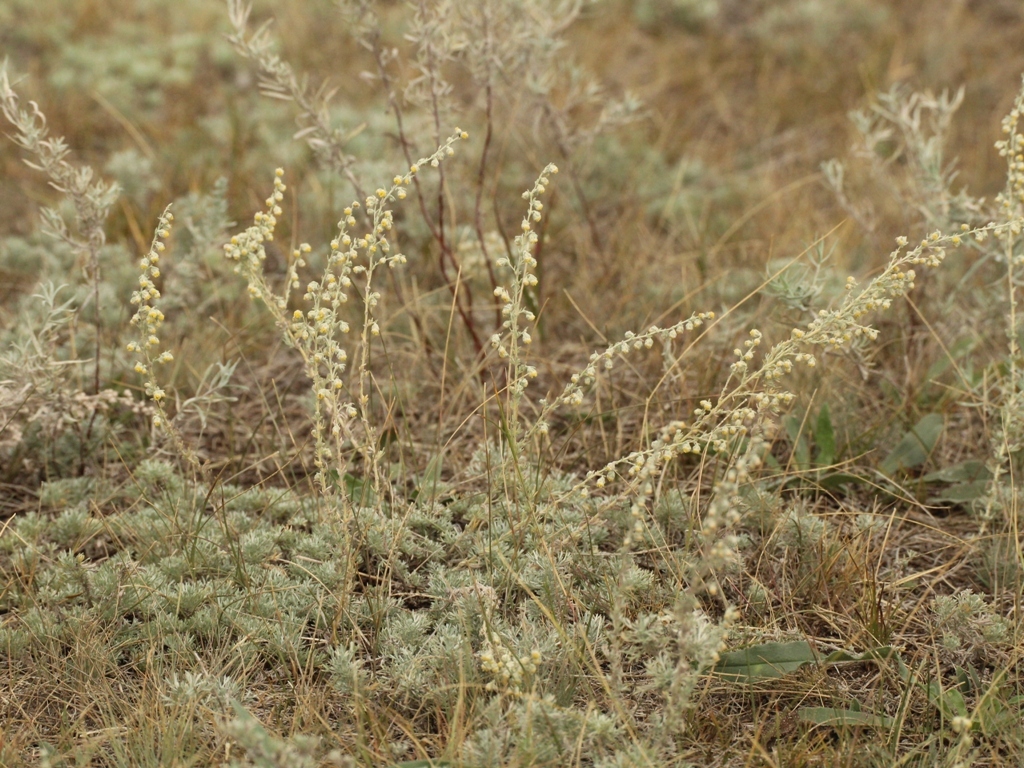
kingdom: Plantae
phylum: Tracheophyta
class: Magnoliopsida
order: Asterales
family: Asteraceae
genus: Artemisia
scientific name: Artemisia frigida
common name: Prairie sagewort
